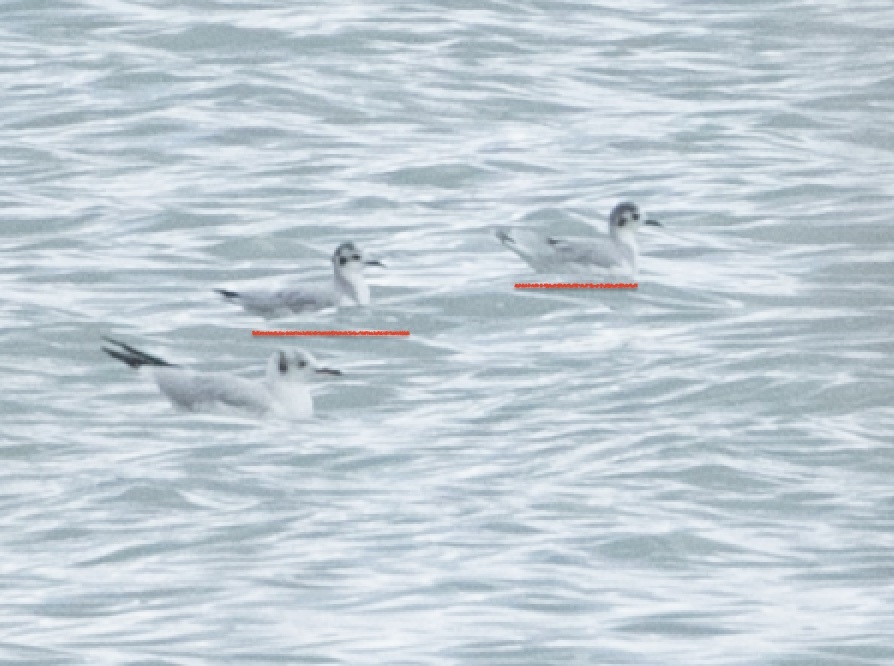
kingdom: Animalia
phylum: Chordata
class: Aves
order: Charadriiformes
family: Laridae
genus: Hydrocoloeus
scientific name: Hydrocoloeus minutus
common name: Little gull
